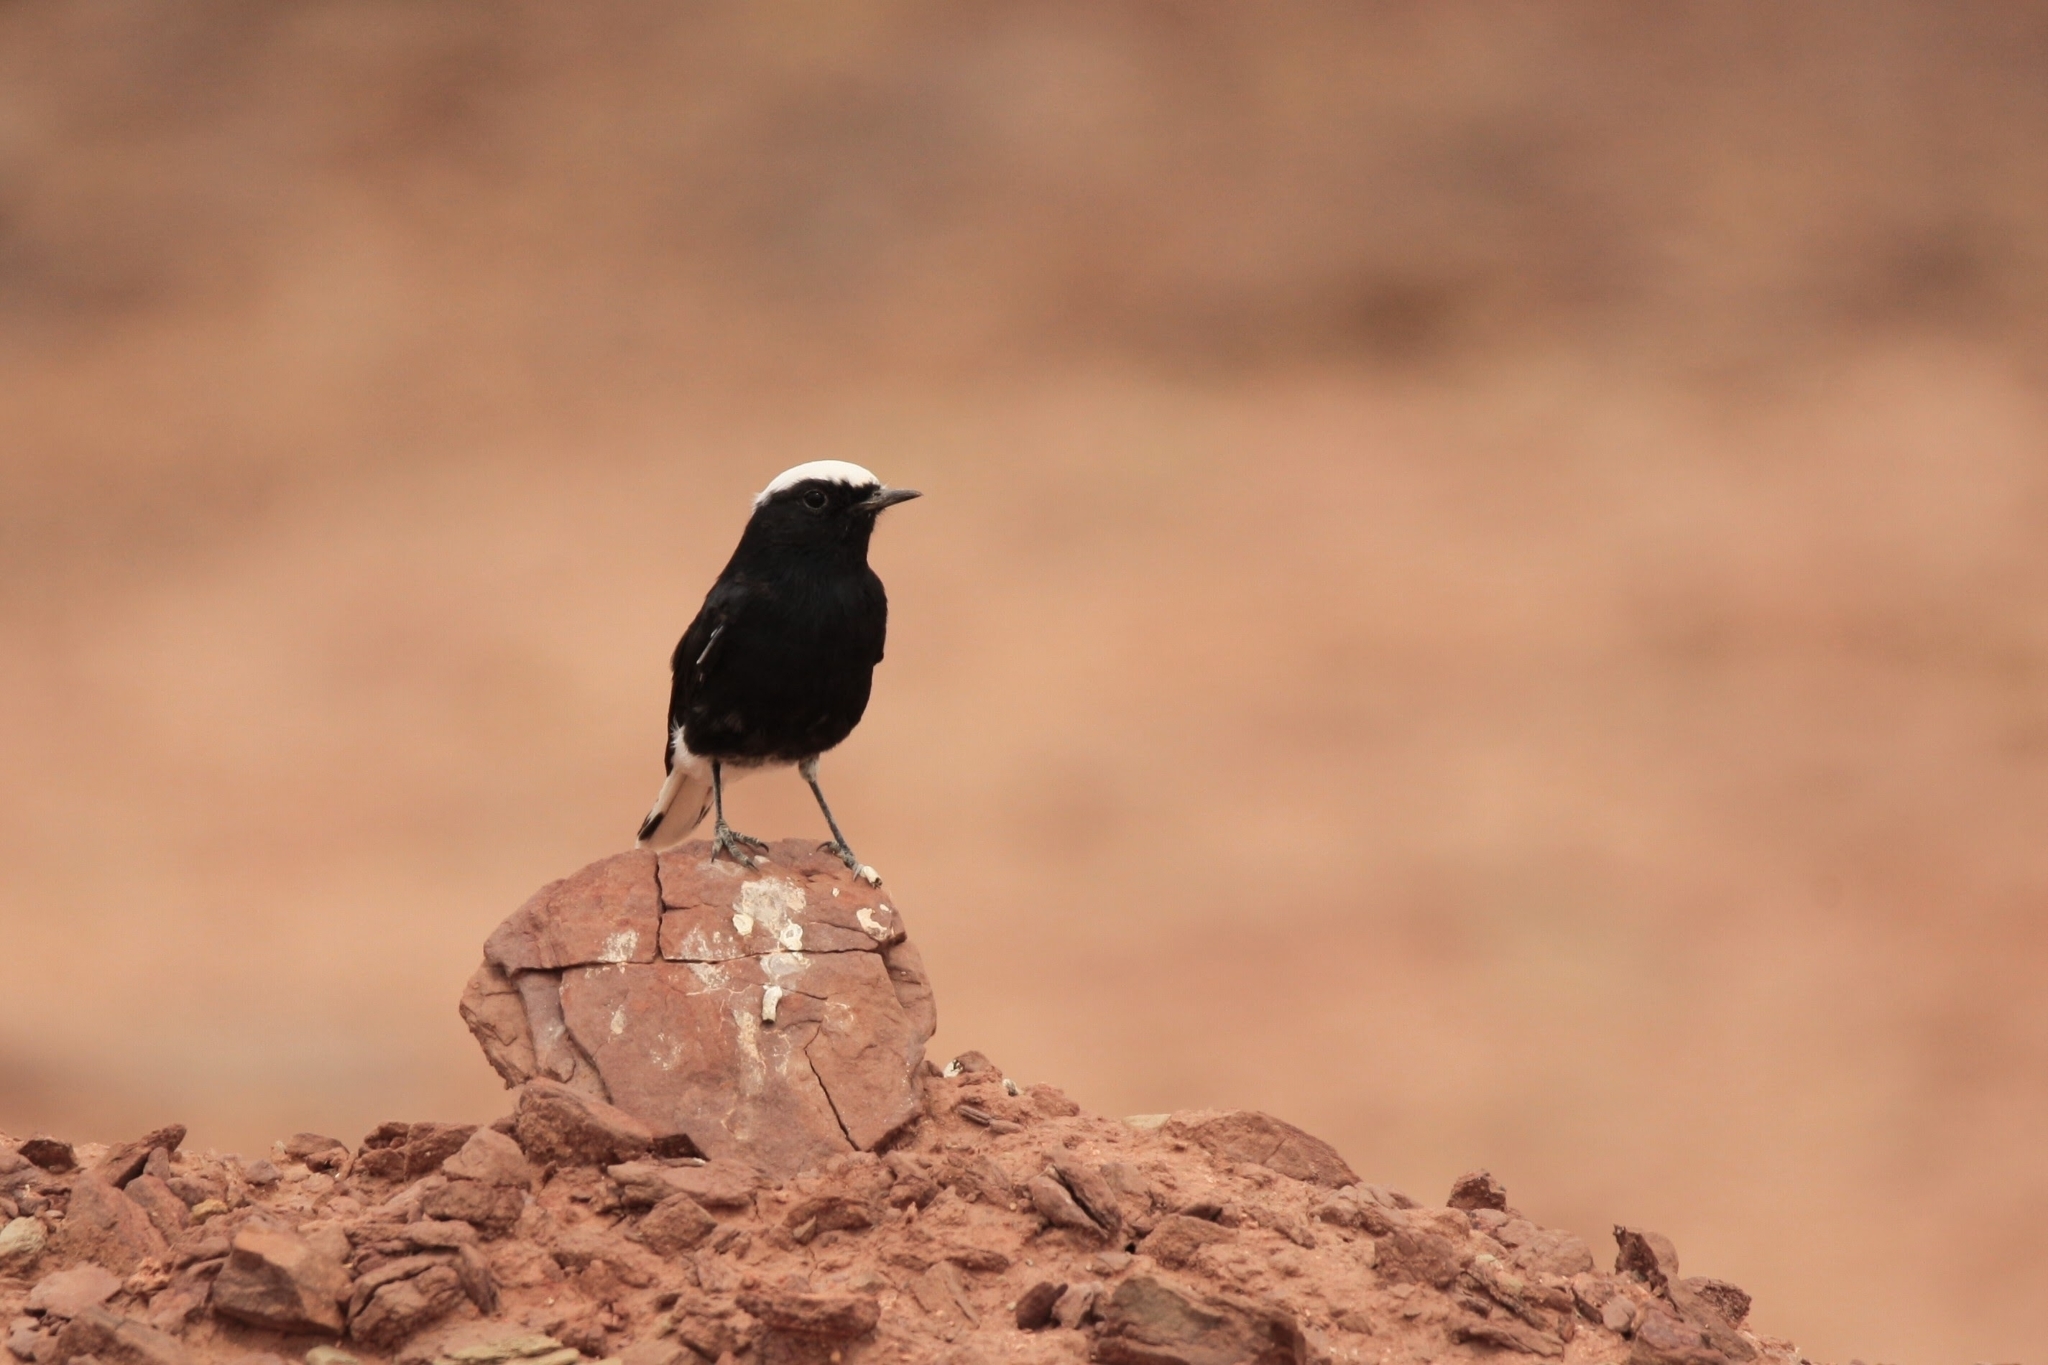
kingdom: Animalia
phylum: Chordata
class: Aves
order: Passeriformes
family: Muscicapidae
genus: Oenanthe
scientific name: Oenanthe leucopyga
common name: White-crowned wheatear
